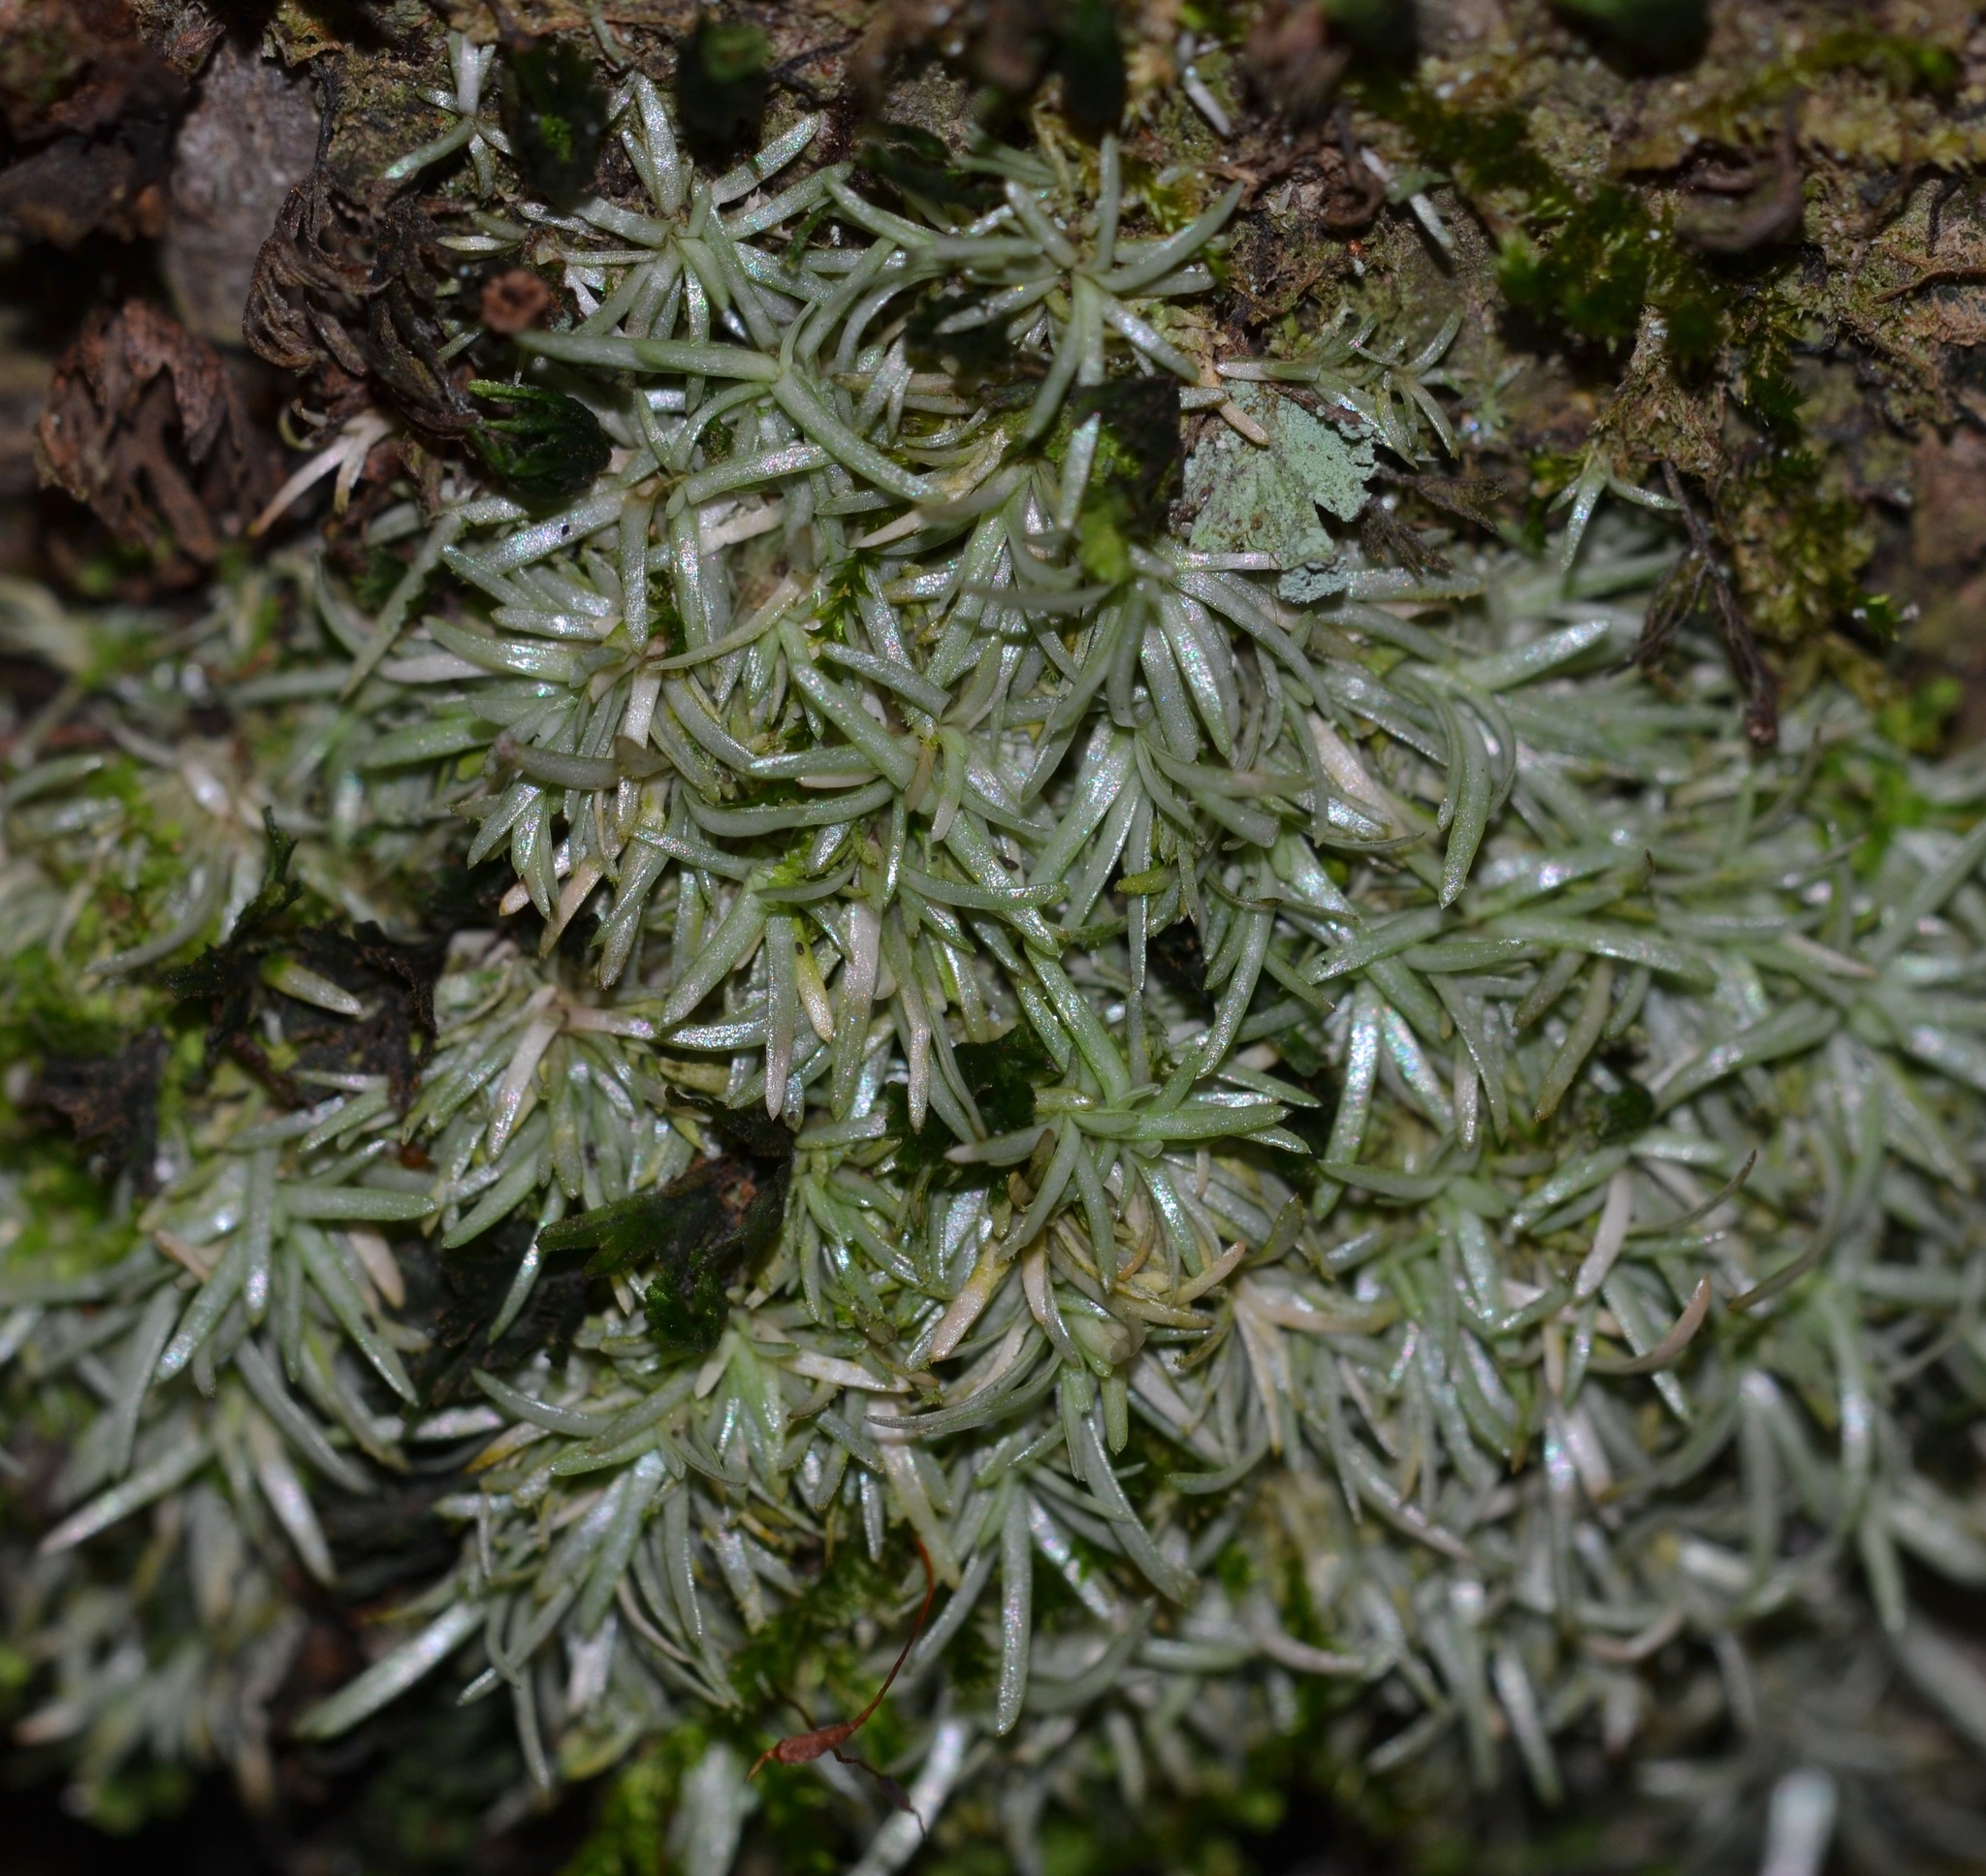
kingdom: Plantae
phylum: Bryophyta
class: Bryopsida
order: Dicranales
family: Octoblepharaceae
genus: Octoblepharum
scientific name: Octoblepharum albidum
